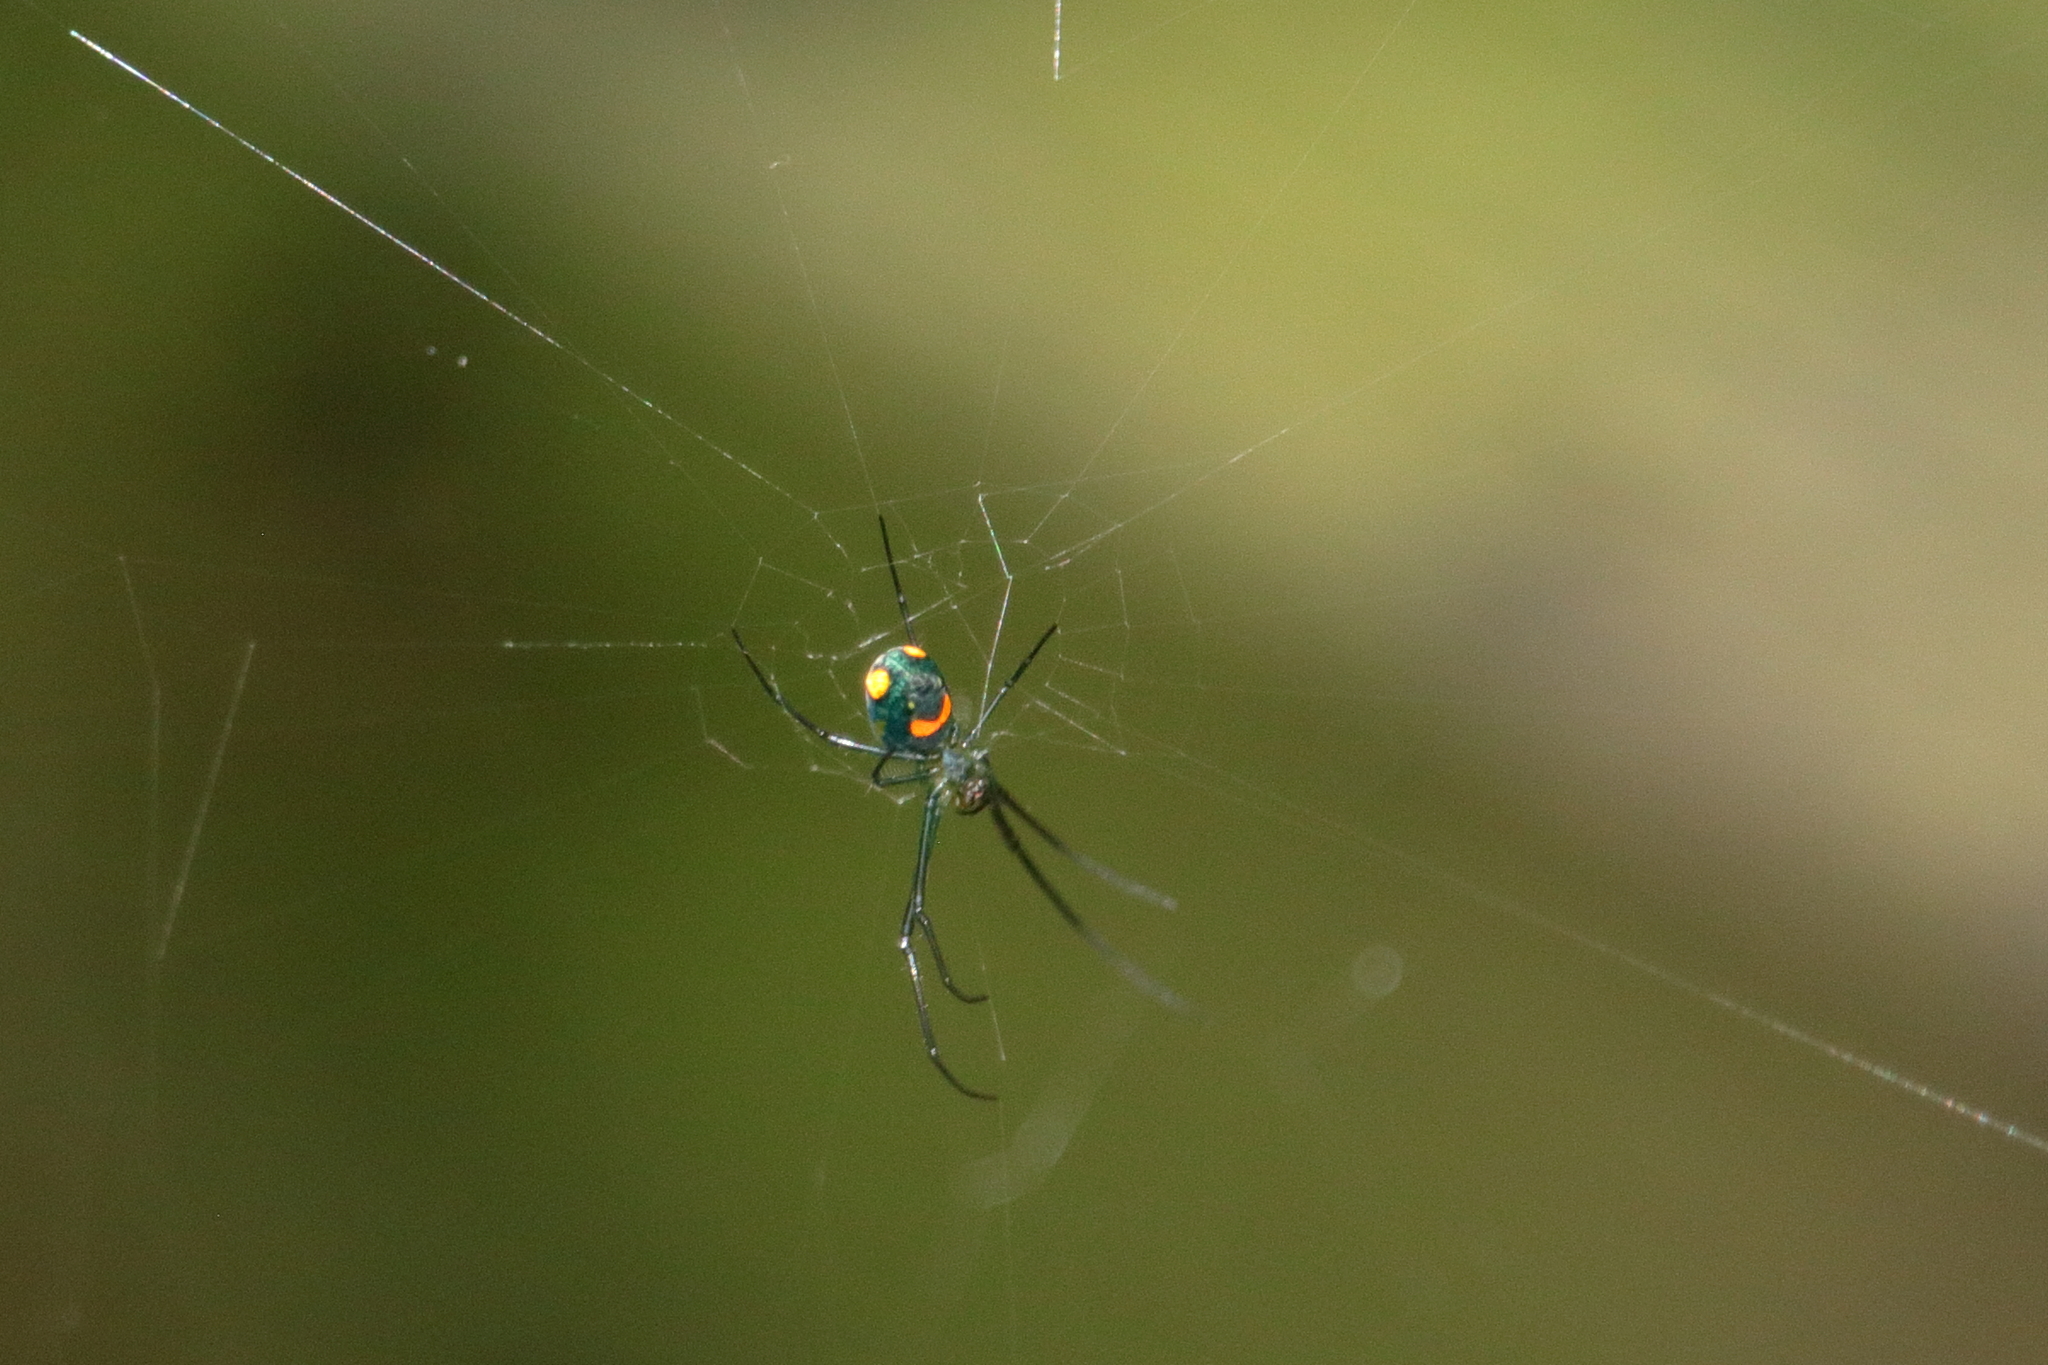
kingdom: Animalia
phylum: Arthropoda
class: Arachnida
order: Araneae
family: Tetragnathidae
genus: Leucauge
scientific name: Leucauge argyrobapta
